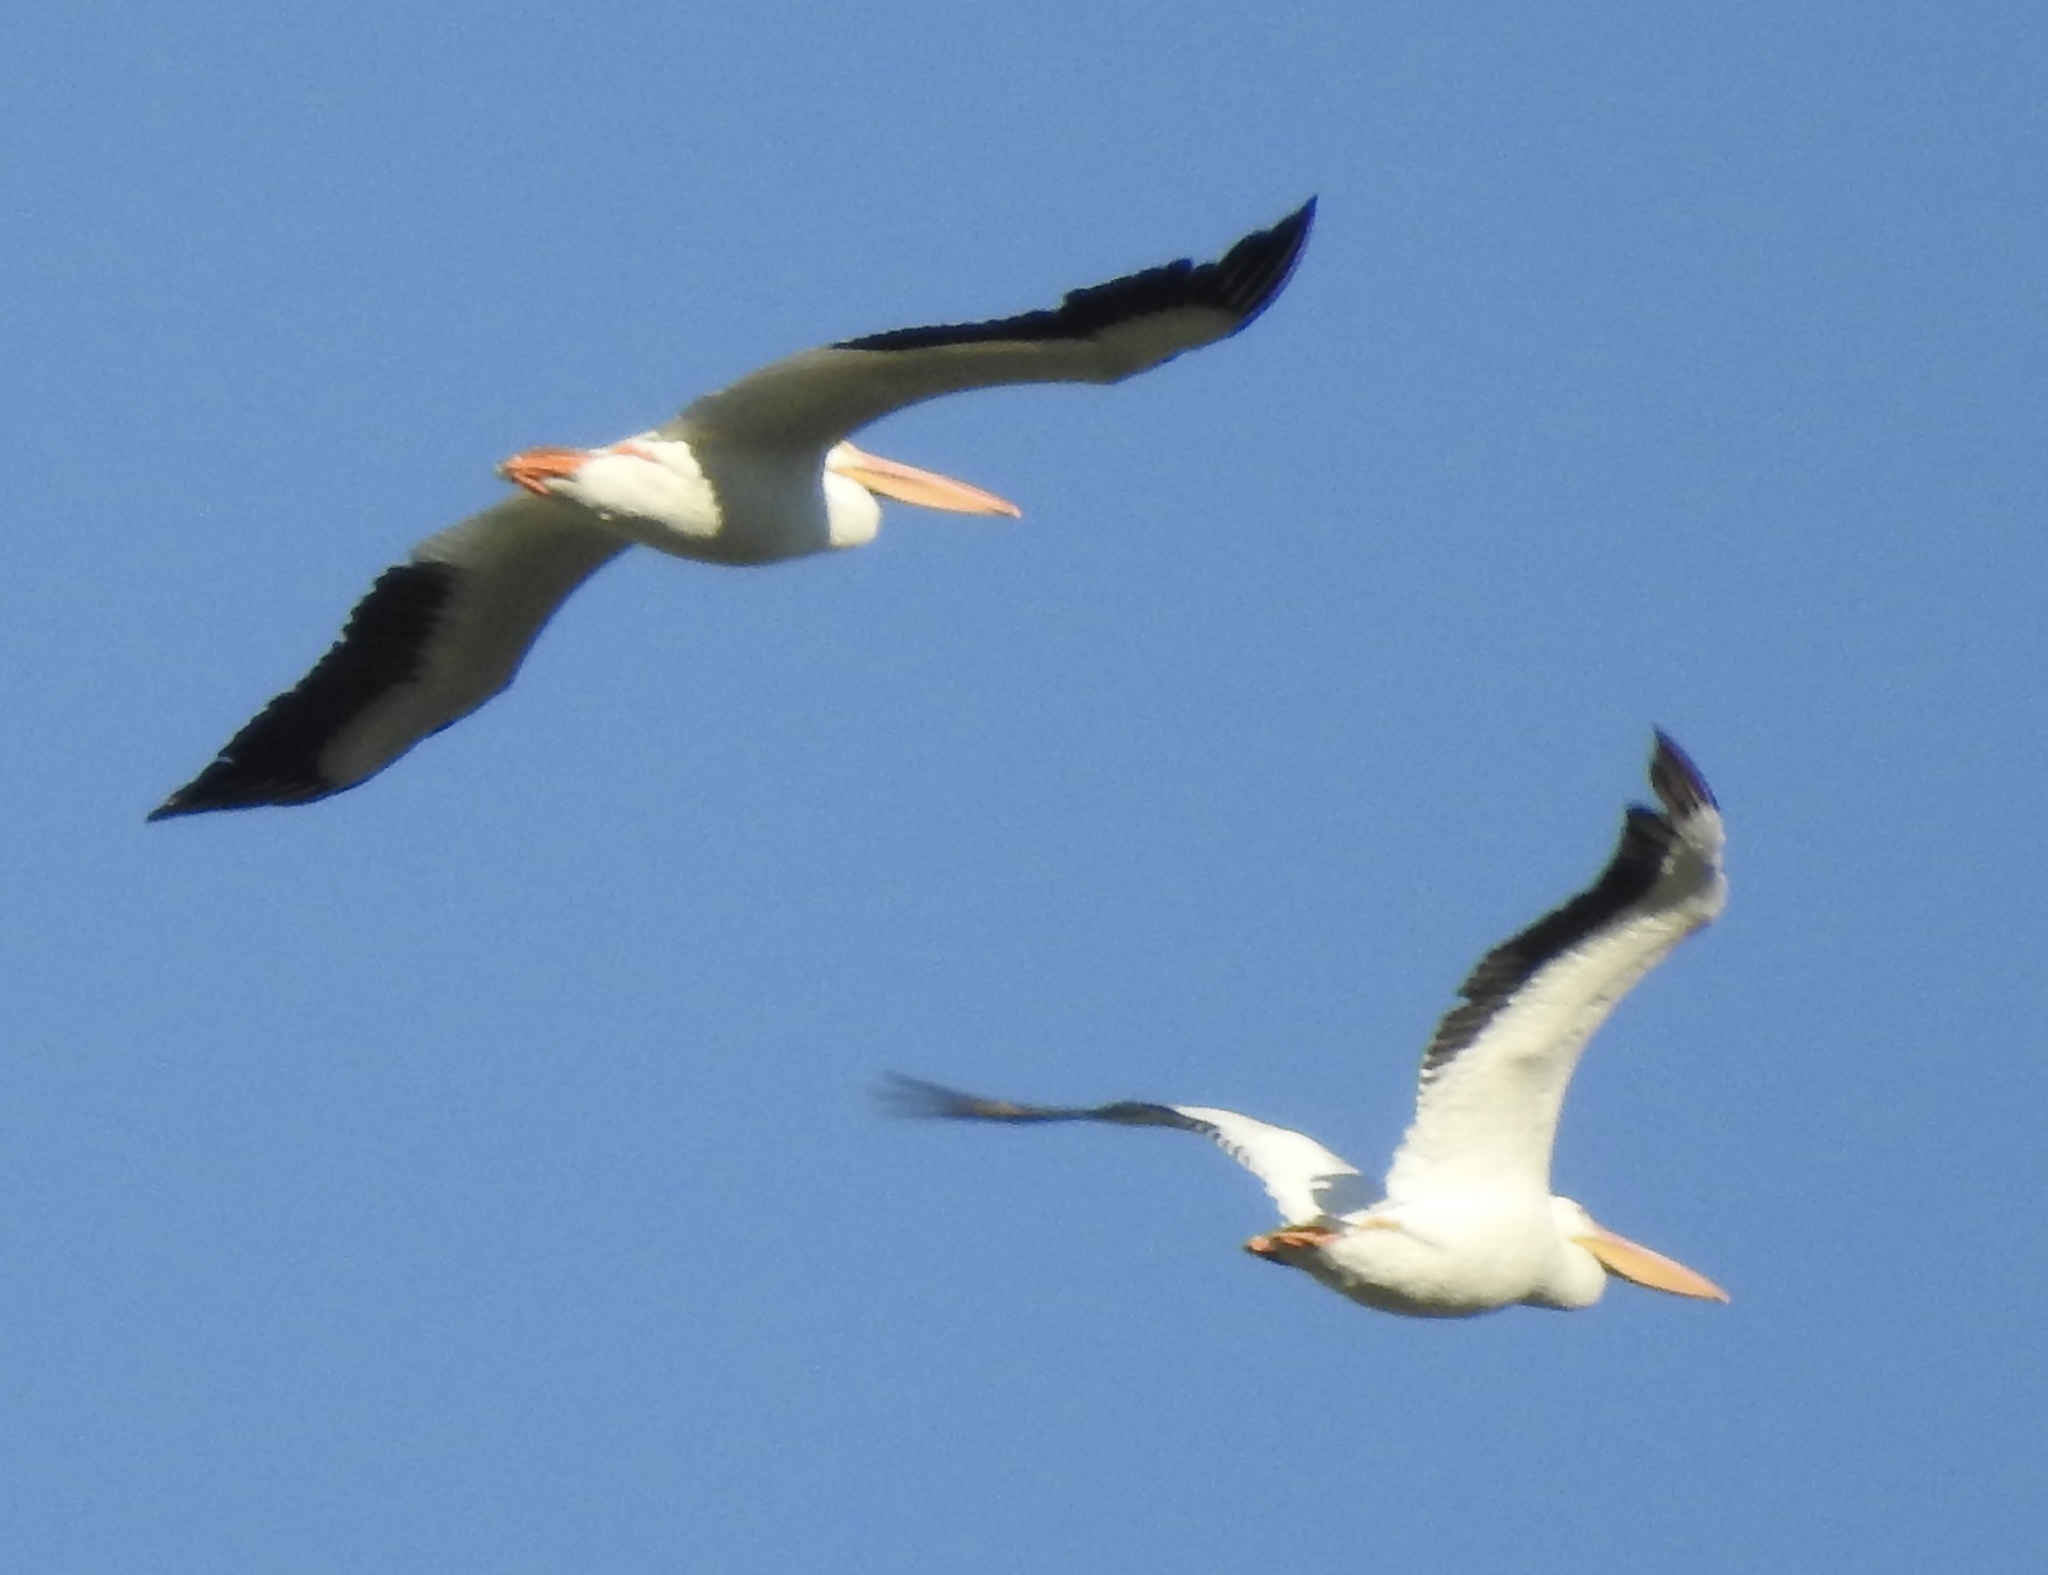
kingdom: Animalia
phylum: Chordata
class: Aves
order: Pelecaniformes
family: Pelecanidae
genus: Pelecanus
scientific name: Pelecanus erythrorhynchos
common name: American white pelican
